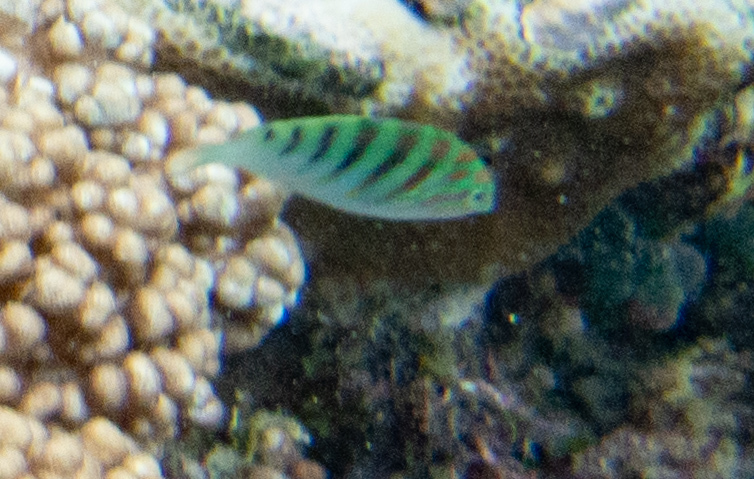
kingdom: Animalia
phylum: Chordata
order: Perciformes
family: Labridae
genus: Thalassoma
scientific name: Thalassoma hardwicke
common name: Sixbar wrasse
